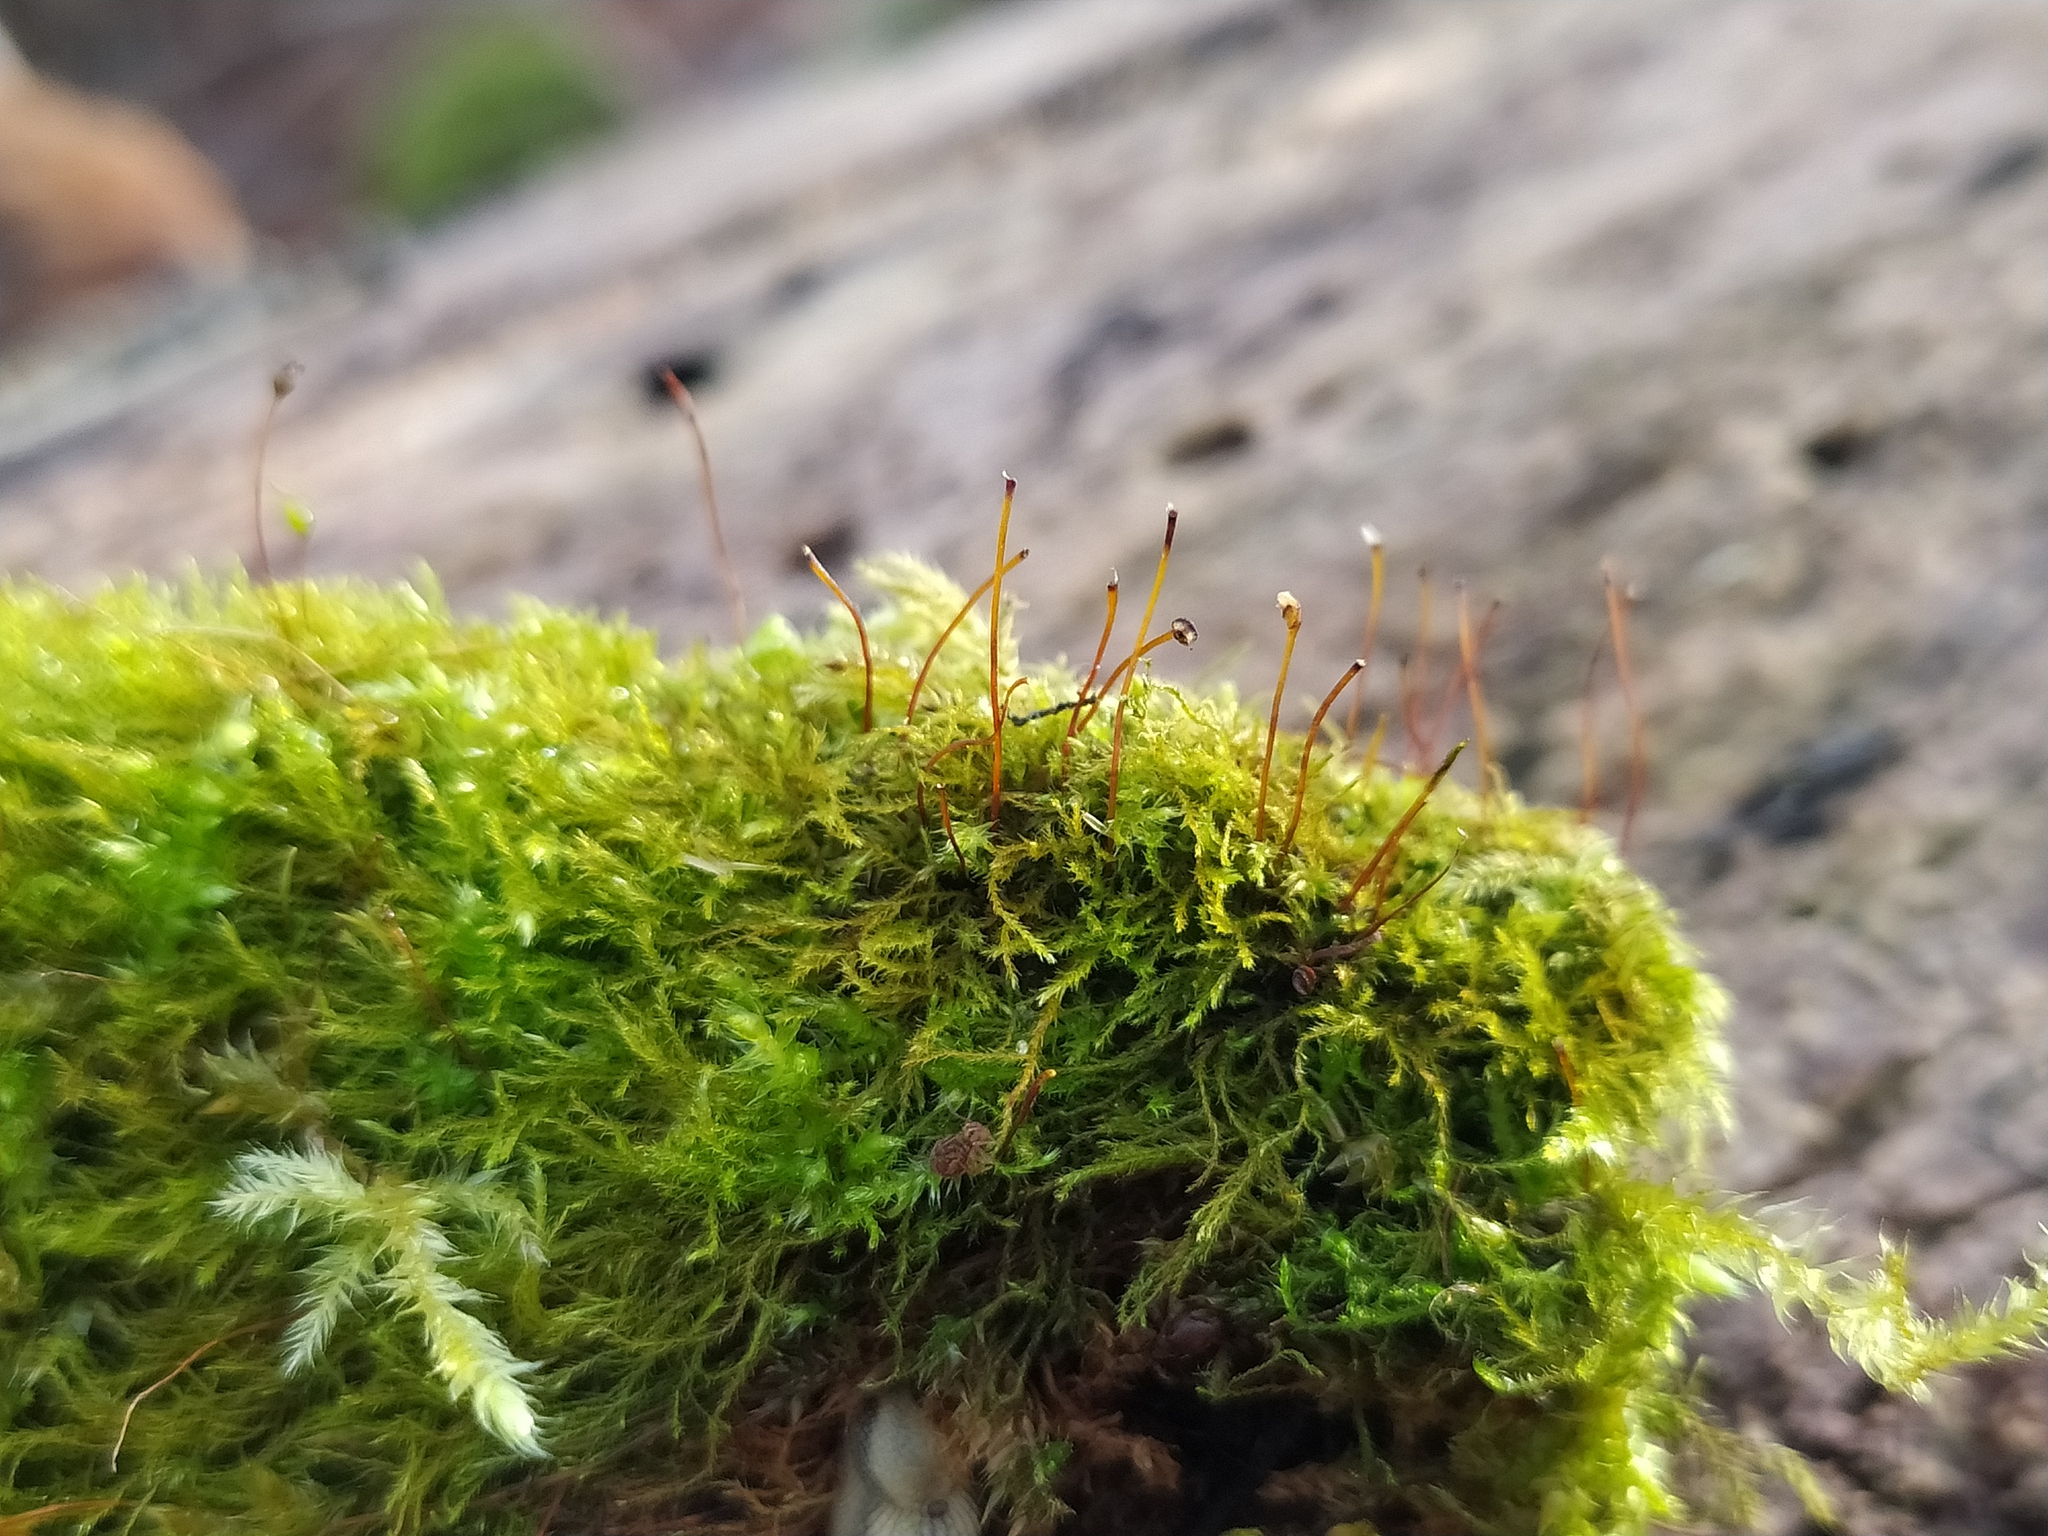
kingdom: Plantae
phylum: Bryophyta
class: Bryopsida
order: Hypnales
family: Amblystegiaceae
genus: Amblystegium
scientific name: Amblystegium serpens
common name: Jurkatzka's feather moss
